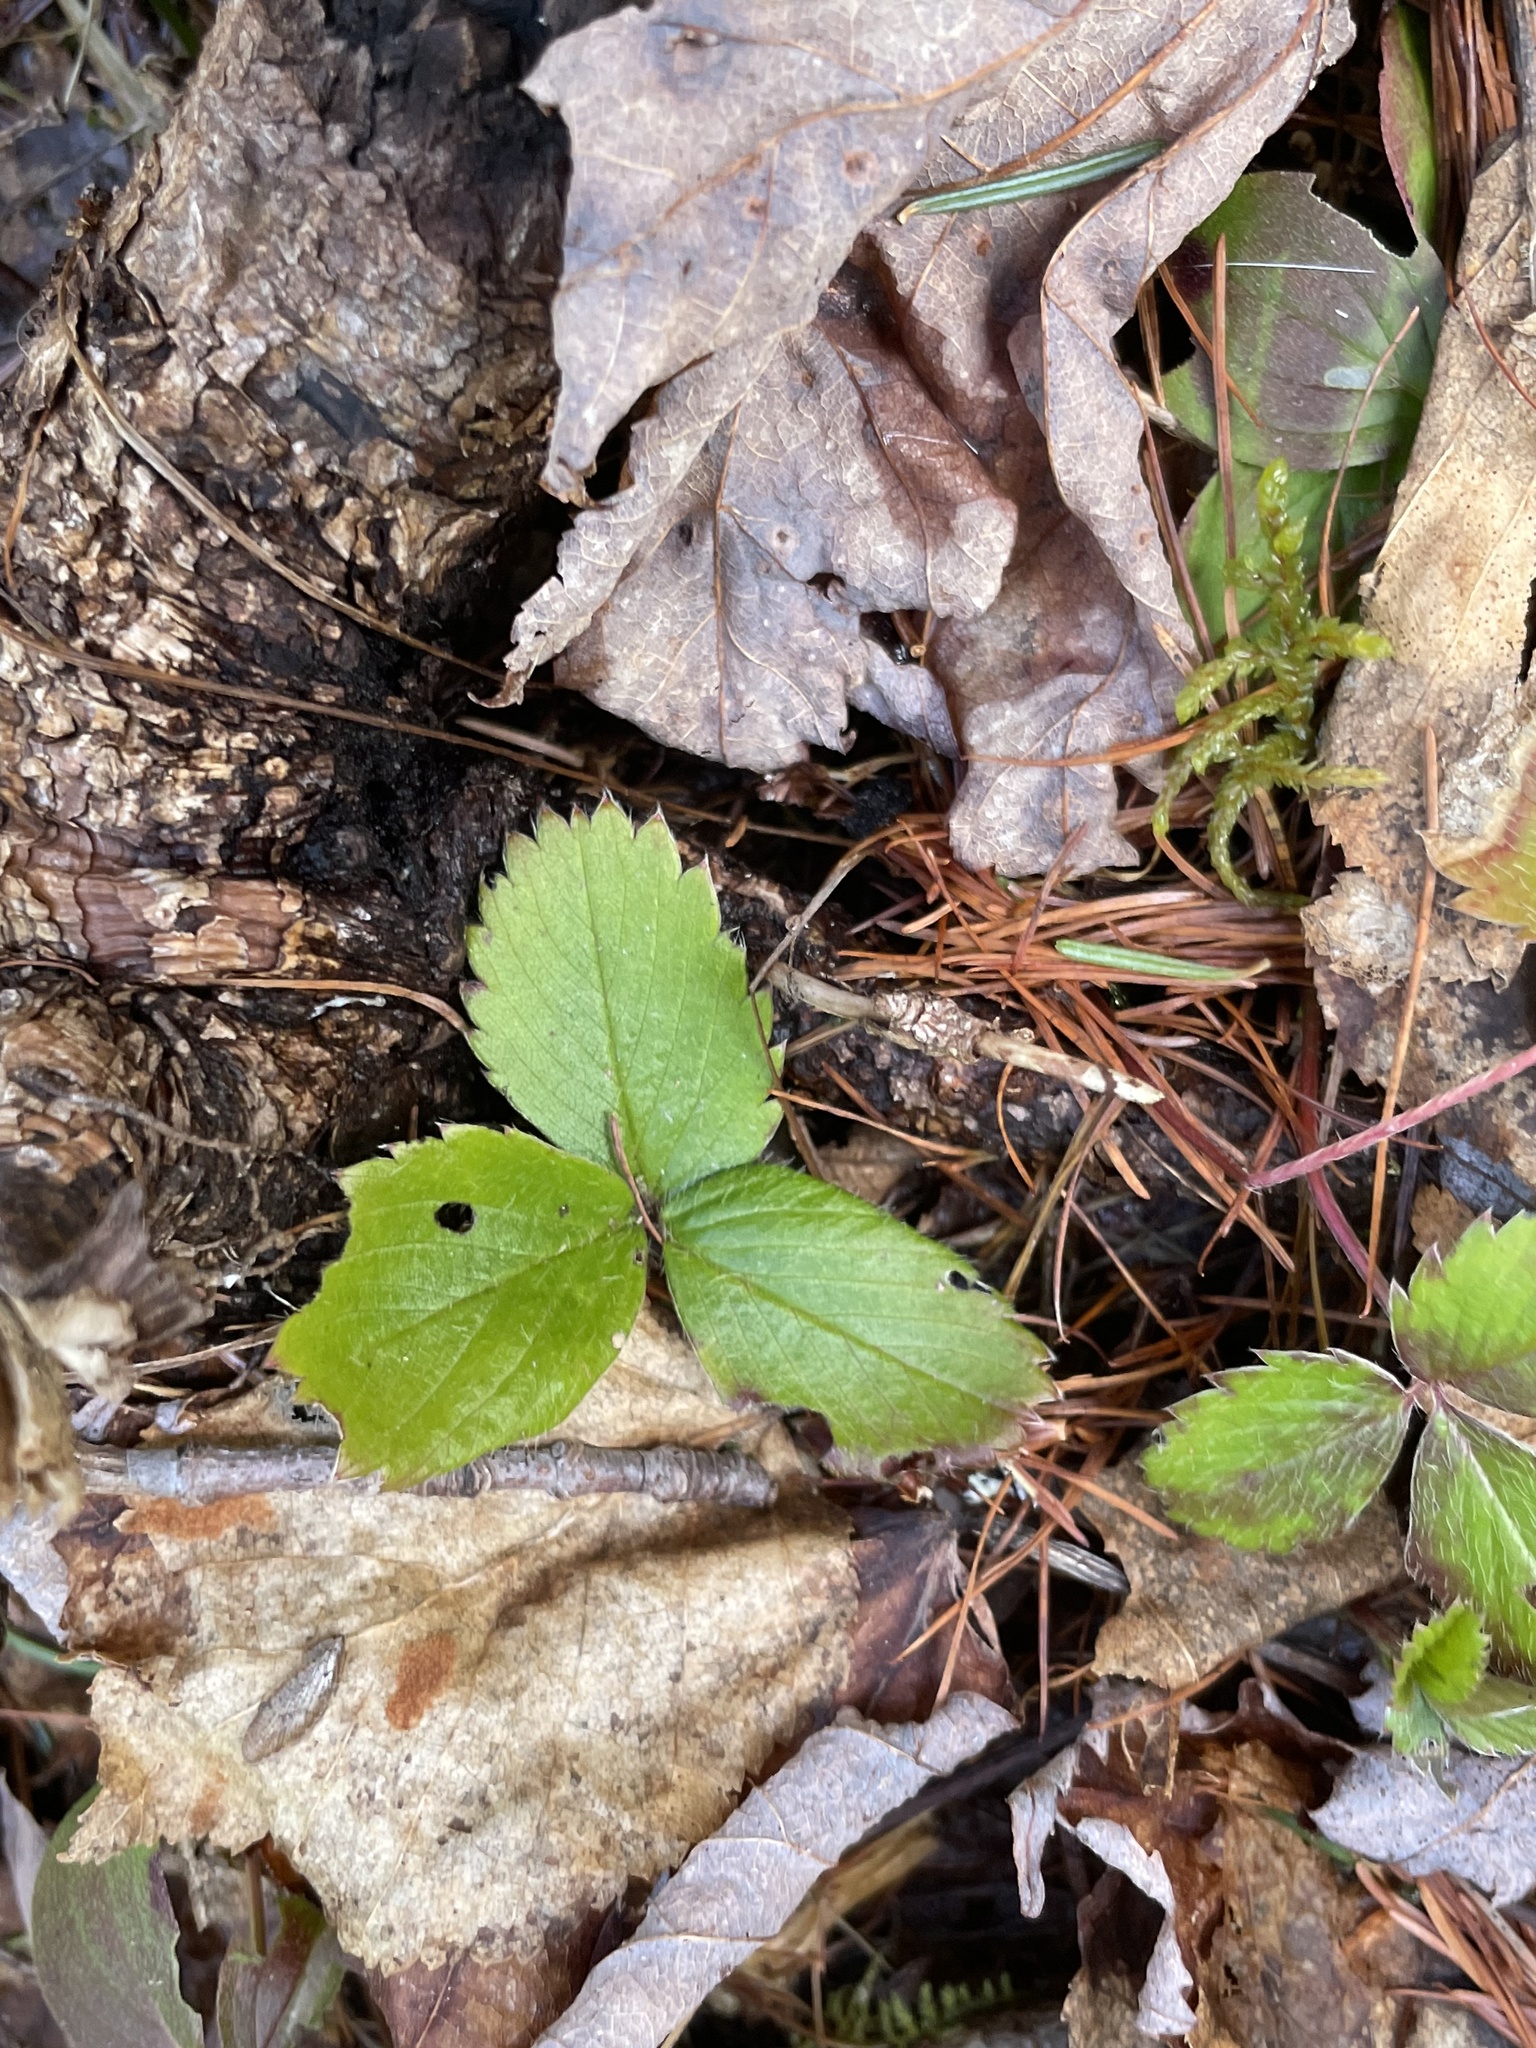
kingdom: Plantae
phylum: Tracheophyta
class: Magnoliopsida
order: Rosales
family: Rosaceae
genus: Fragaria
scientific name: Fragaria virginiana
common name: Thickleaved wild strawberry
